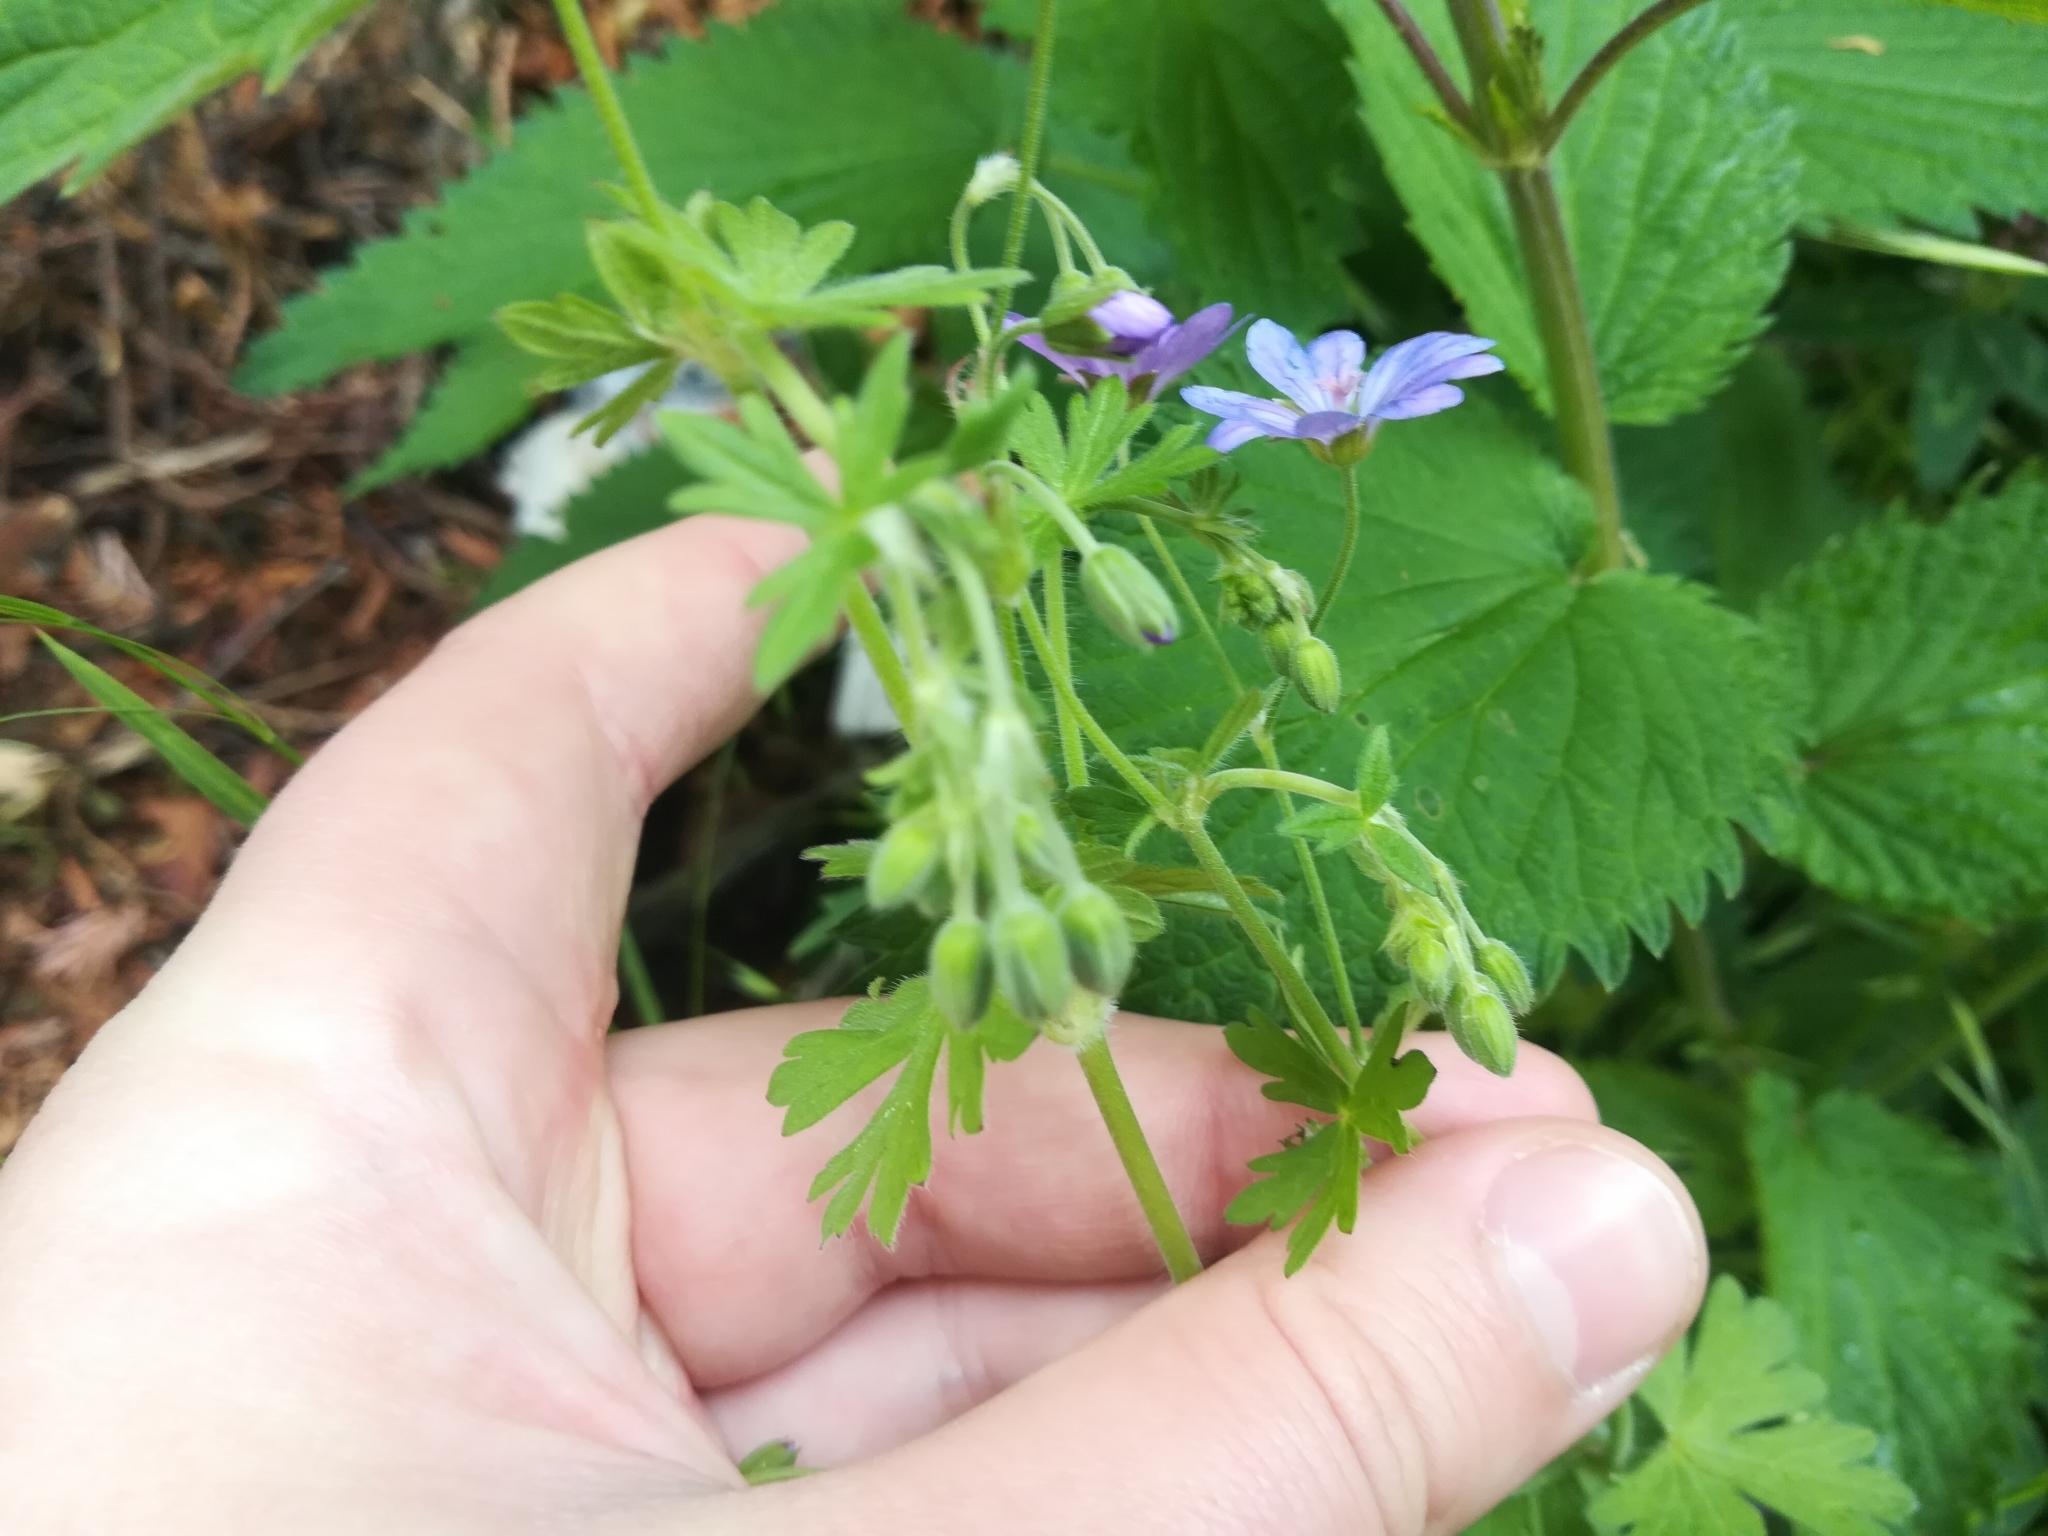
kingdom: Plantae
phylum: Tracheophyta
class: Magnoliopsida
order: Geraniales
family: Geraniaceae
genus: Geranium
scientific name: Geranium pyrenaicum
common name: Hedgerow crane's-bill
